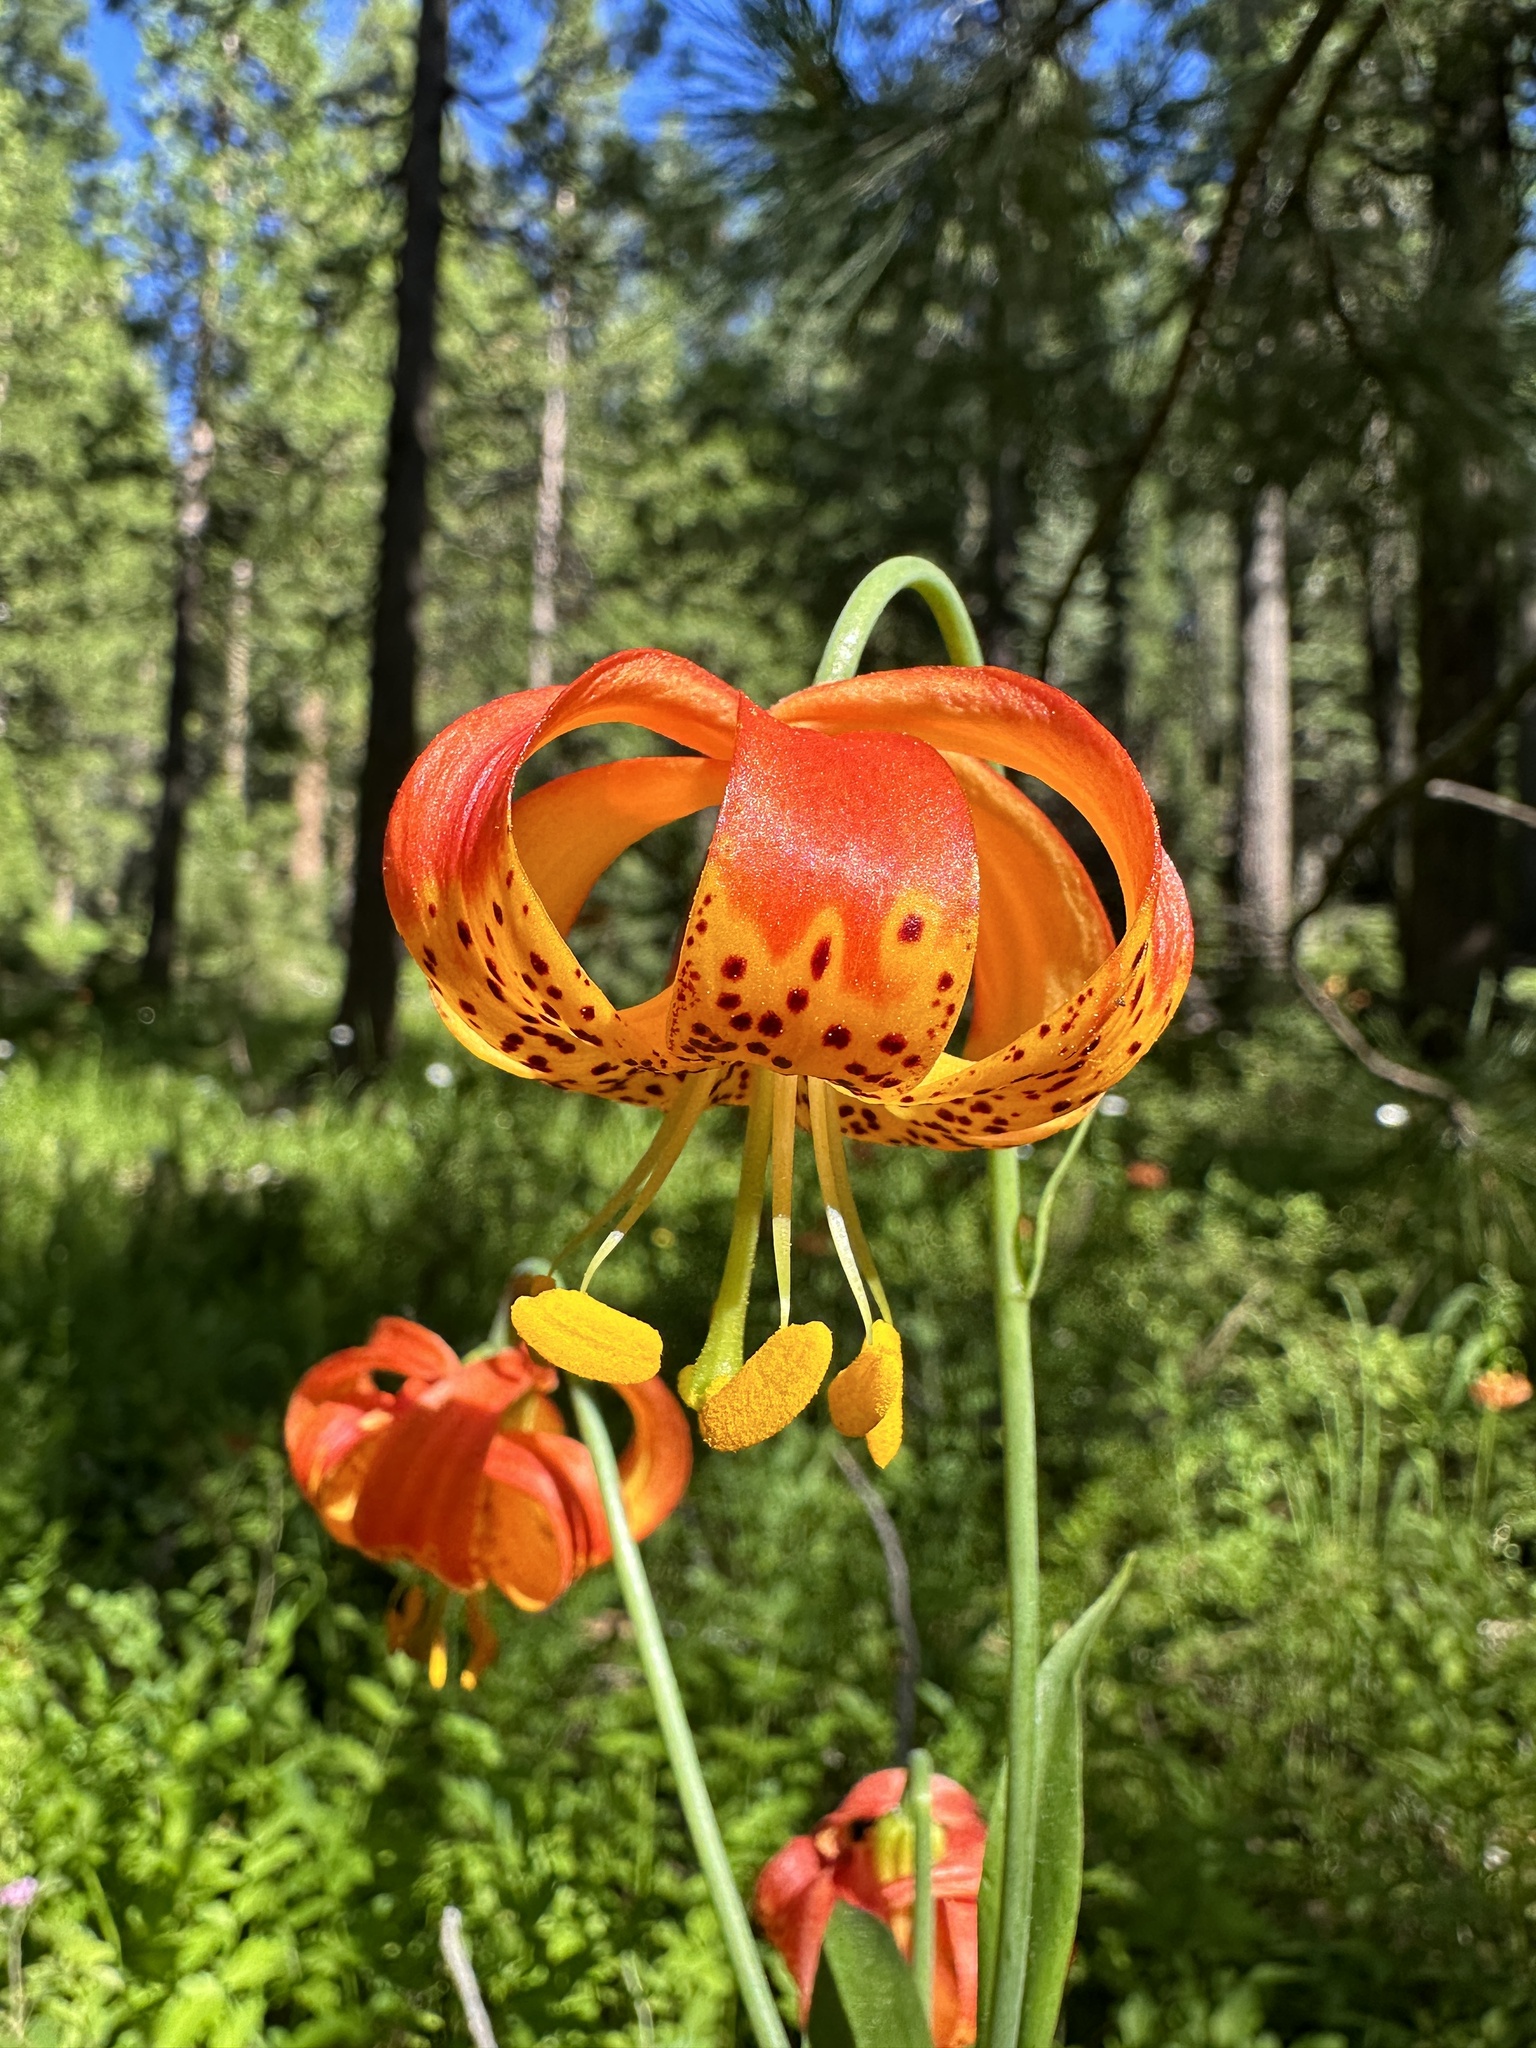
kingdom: Plantae
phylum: Tracheophyta
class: Liliopsida
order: Liliales
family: Liliaceae
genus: Lilium
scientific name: Lilium pardalinum
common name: Panther lily
